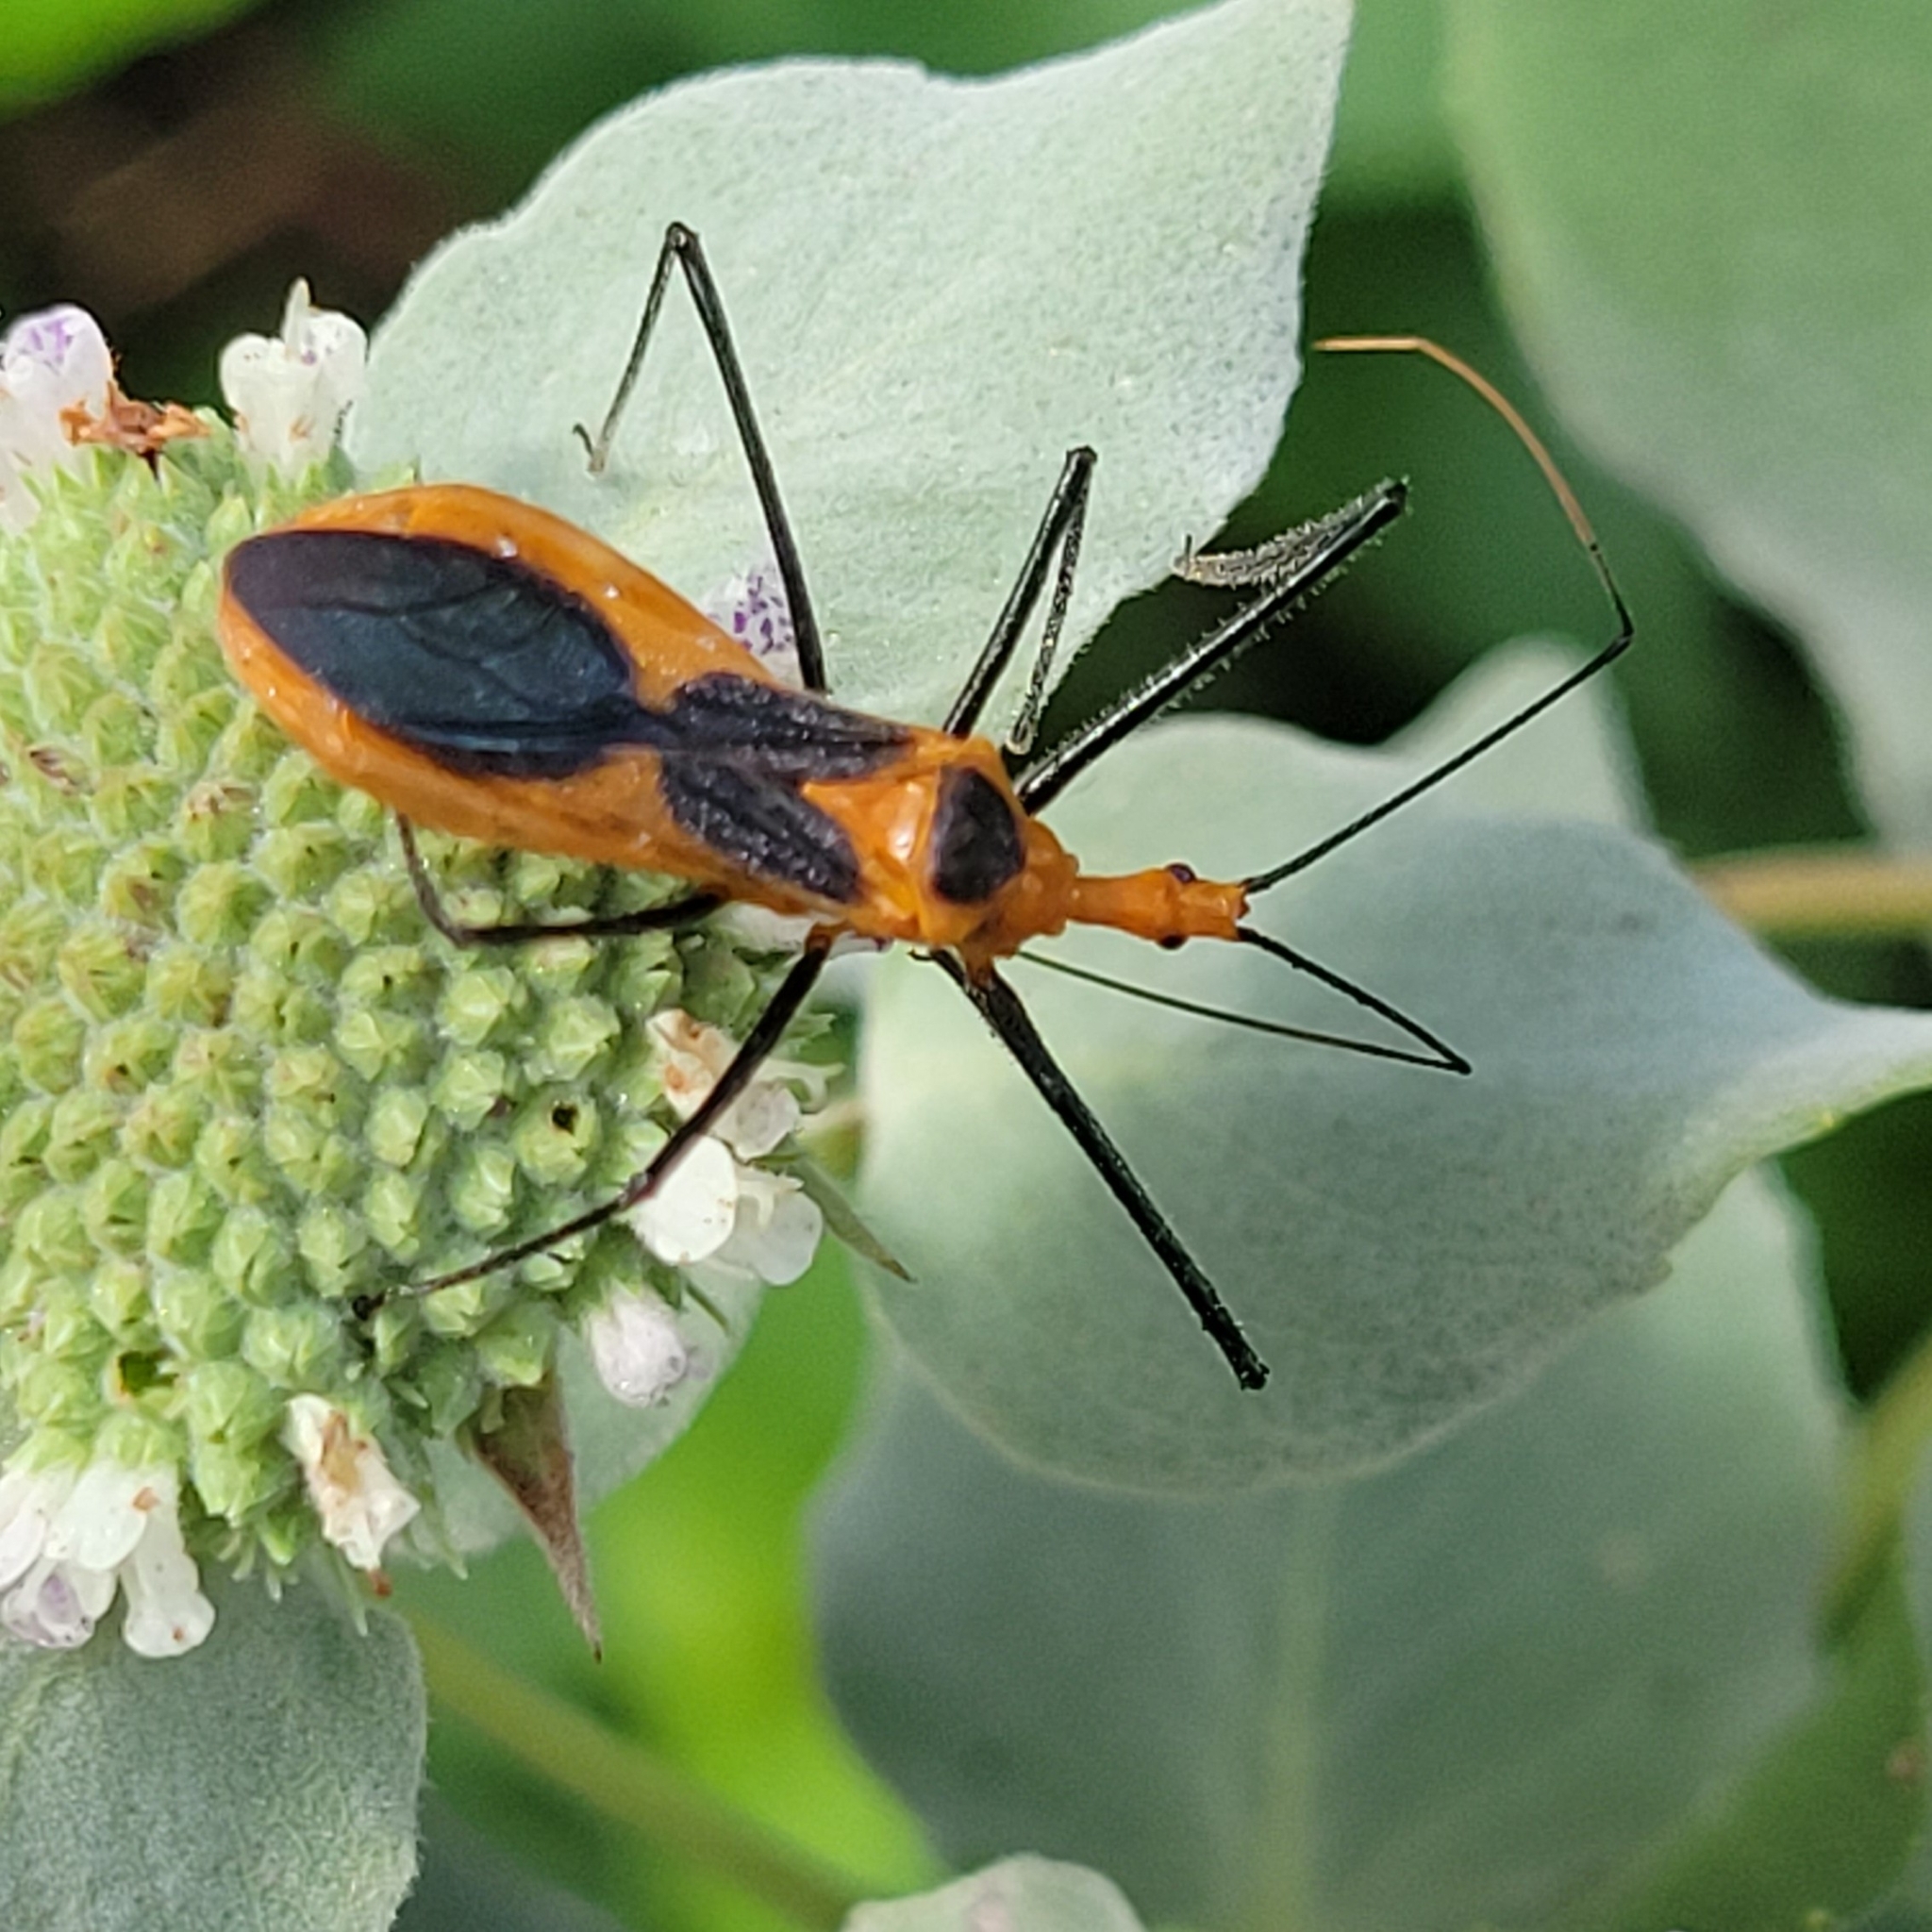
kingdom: Animalia
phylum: Arthropoda
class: Insecta
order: Hemiptera
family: Reduviidae
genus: Zelus
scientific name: Zelus longipes
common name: Milkweed assassin bug
